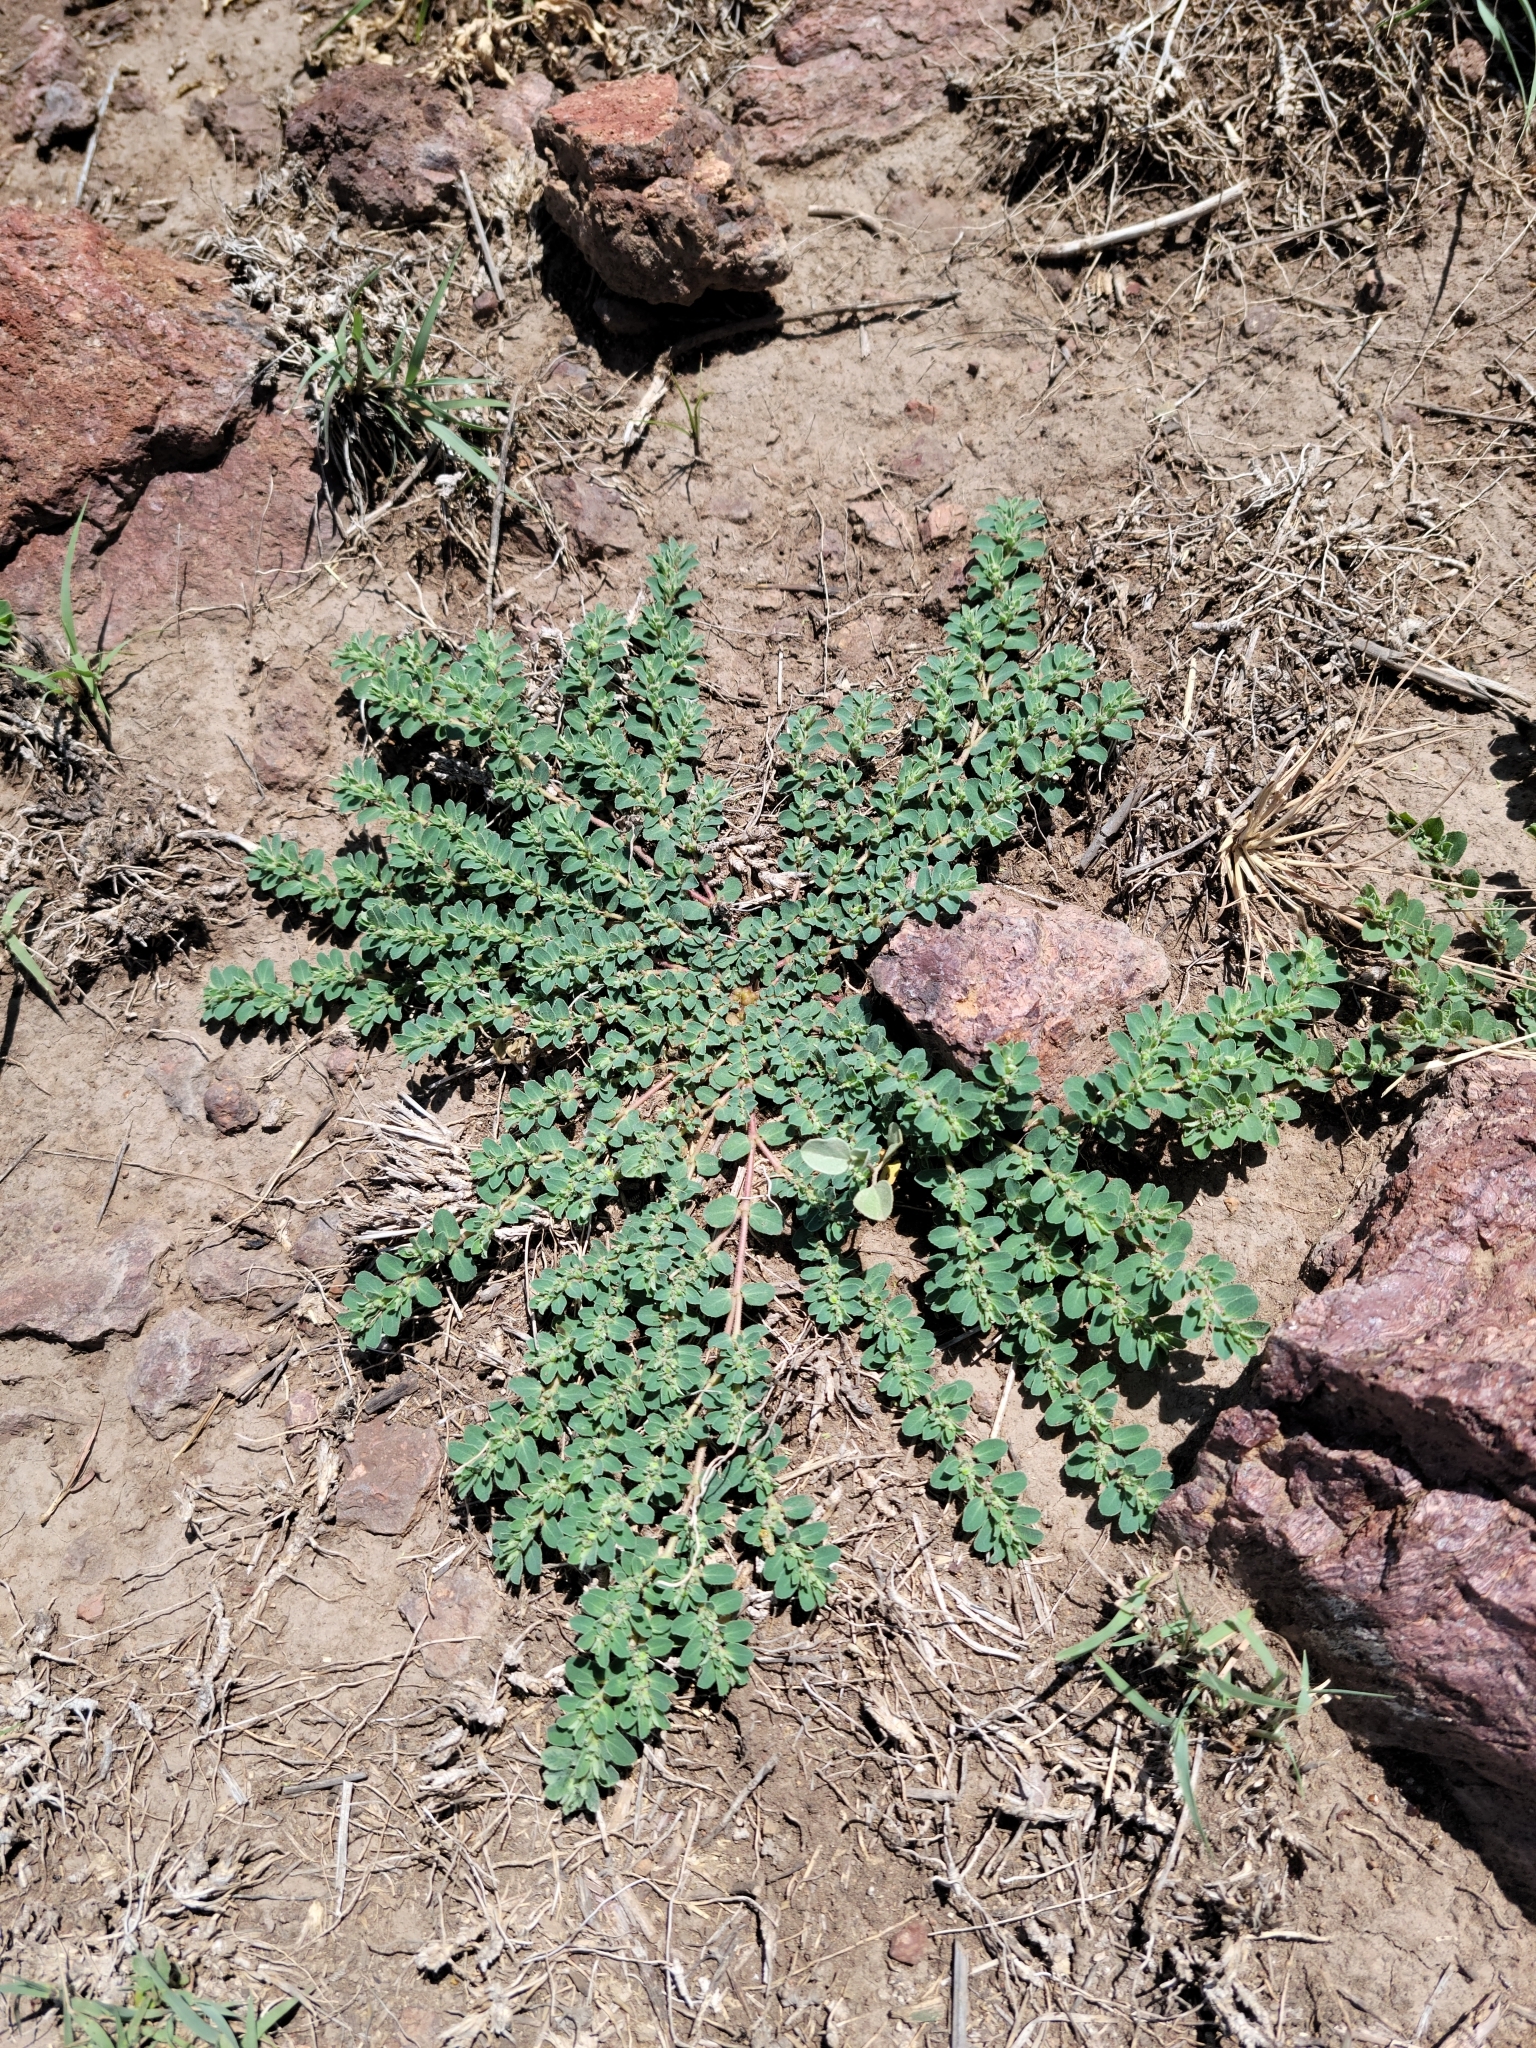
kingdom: Plantae
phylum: Tracheophyta
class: Magnoliopsida
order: Malpighiales
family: Euphorbiaceae
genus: Euphorbia
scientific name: Euphorbia prostrata
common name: Prostrate sandmat
